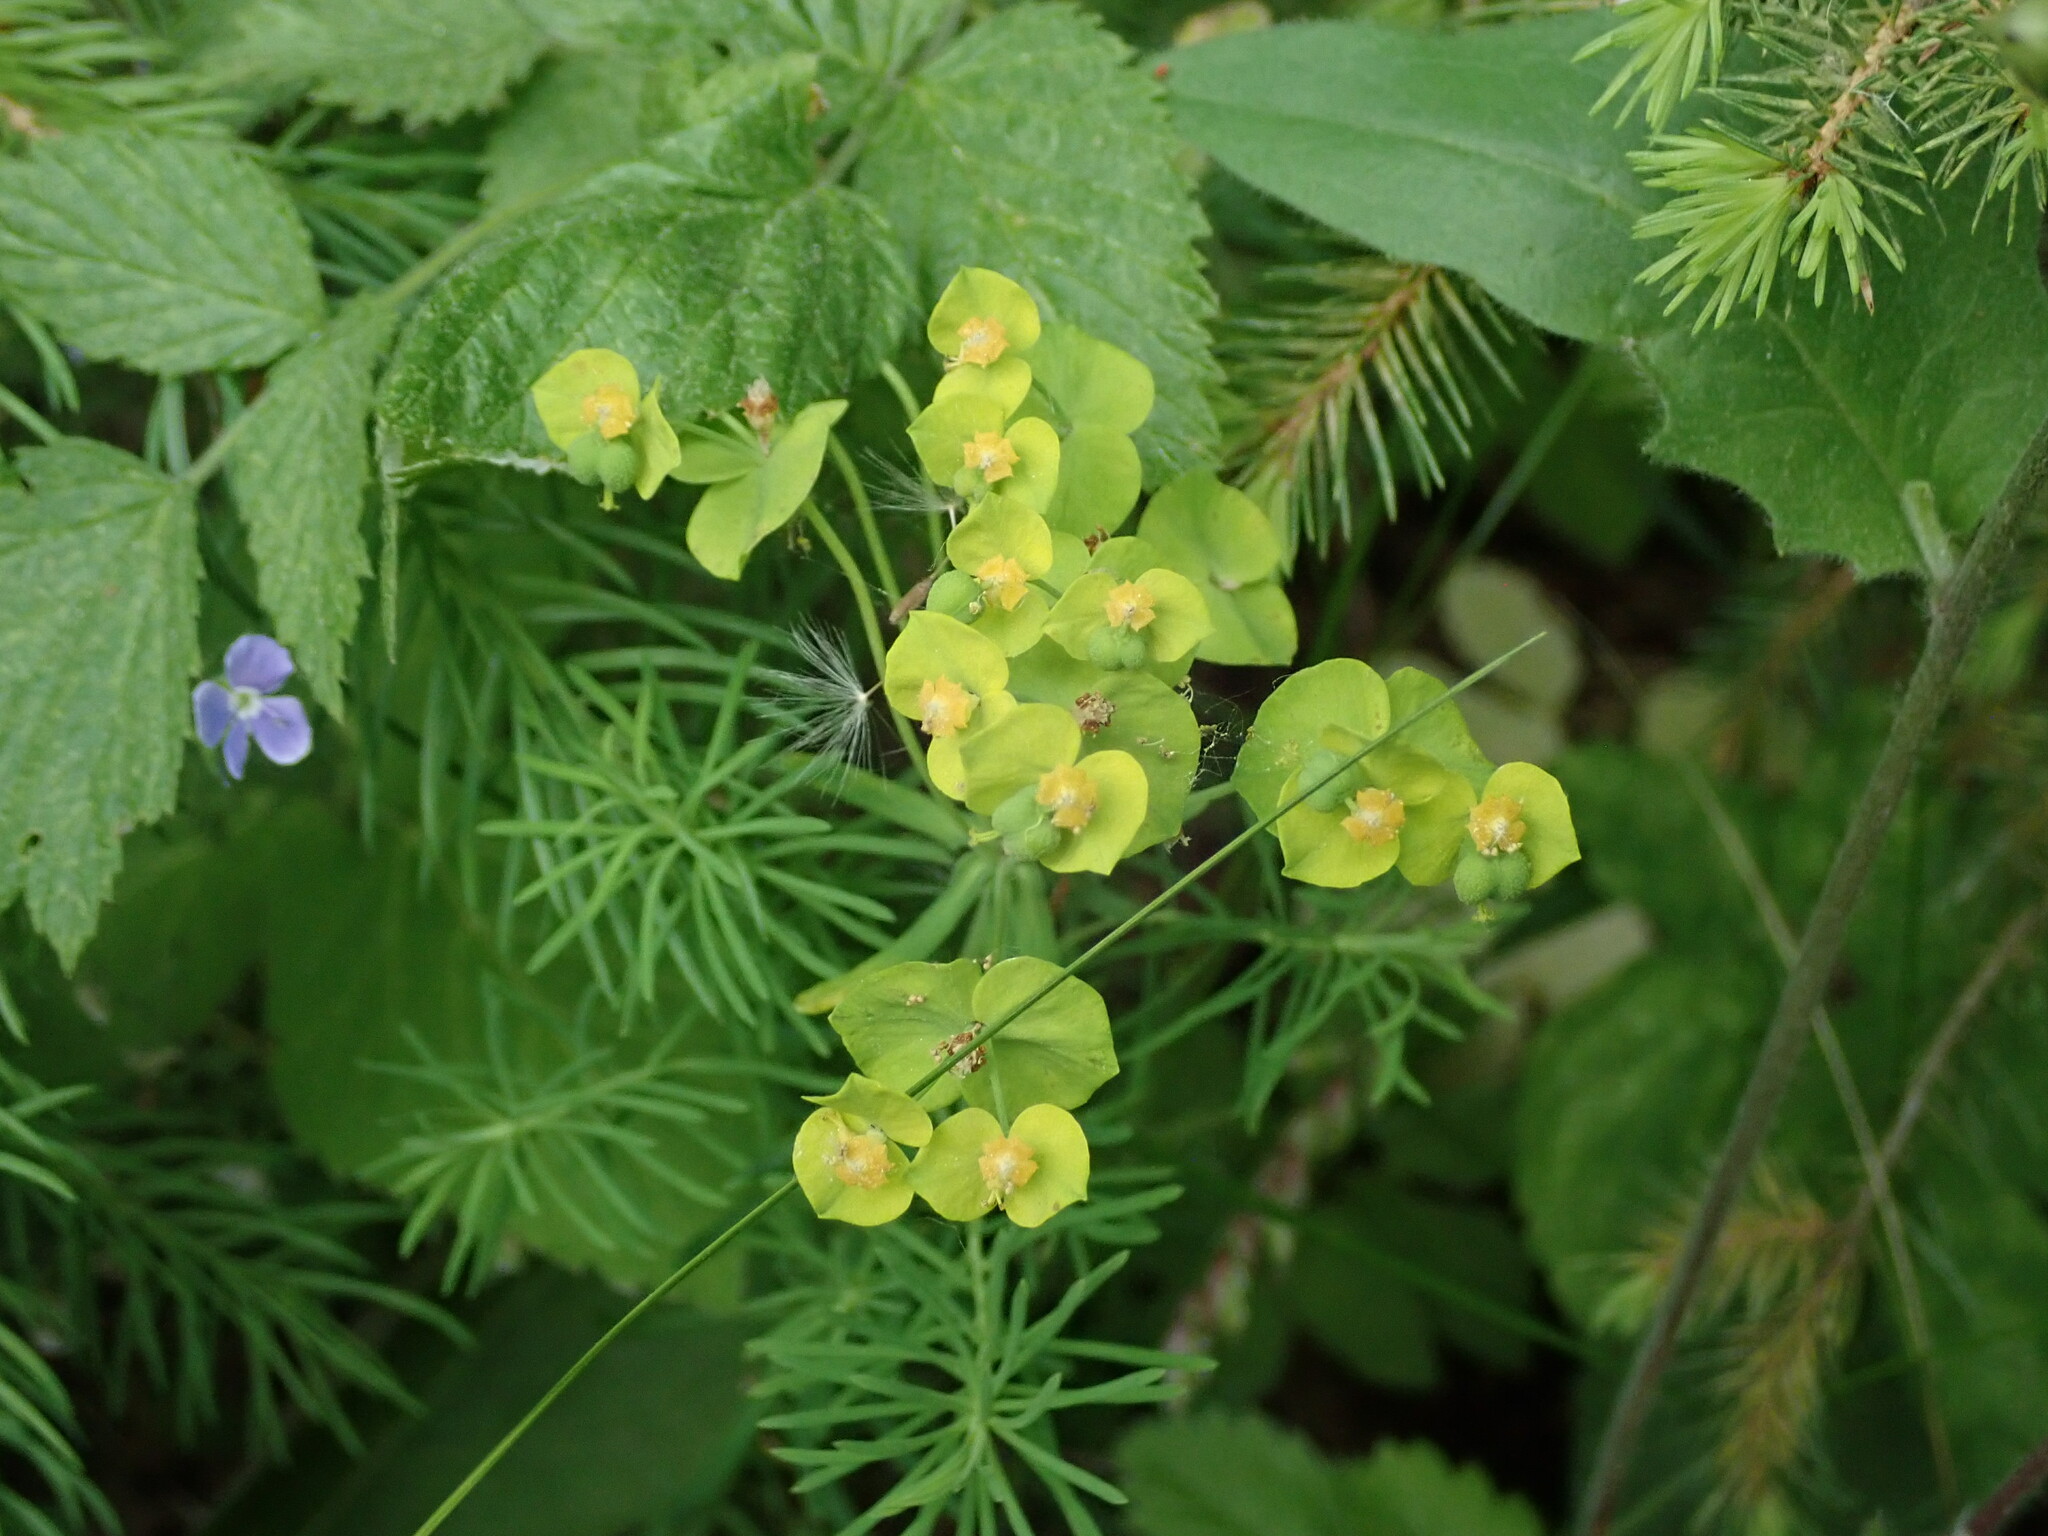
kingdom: Plantae
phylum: Tracheophyta
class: Magnoliopsida
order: Malpighiales
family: Euphorbiaceae
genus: Euphorbia
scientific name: Euphorbia cyparissias
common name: Cypress spurge
